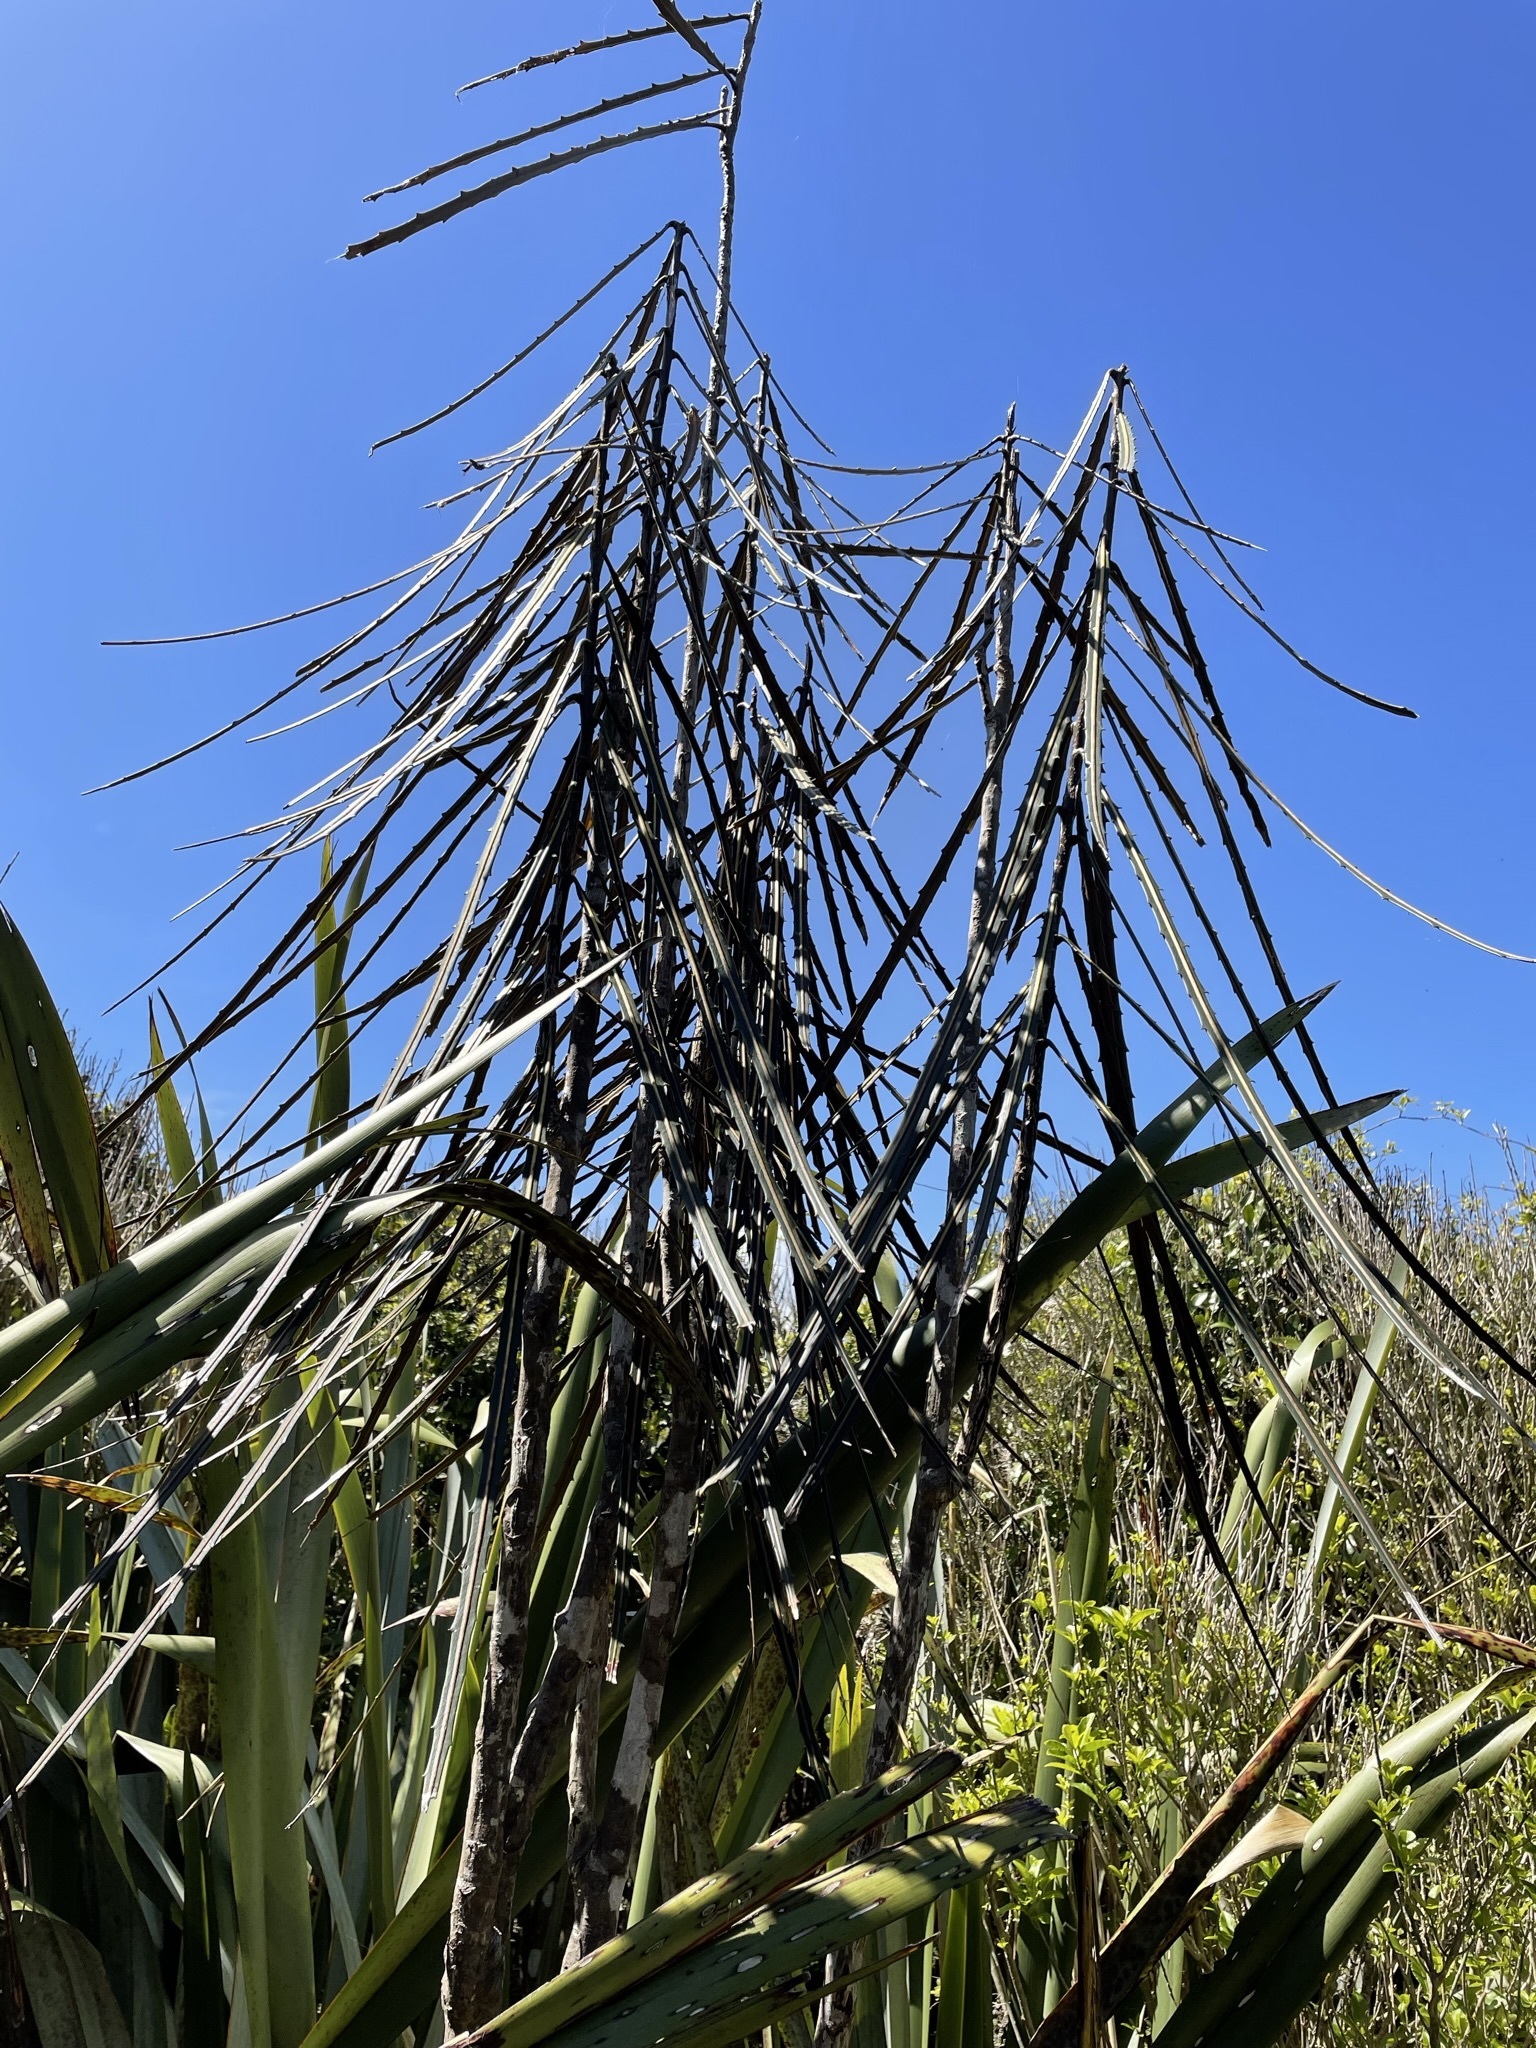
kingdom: Plantae
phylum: Tracheophyta
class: Magnoliopsida
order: Apiales
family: Araliaceae
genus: Pseudopanax
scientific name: Pseudopanax crassifolius
